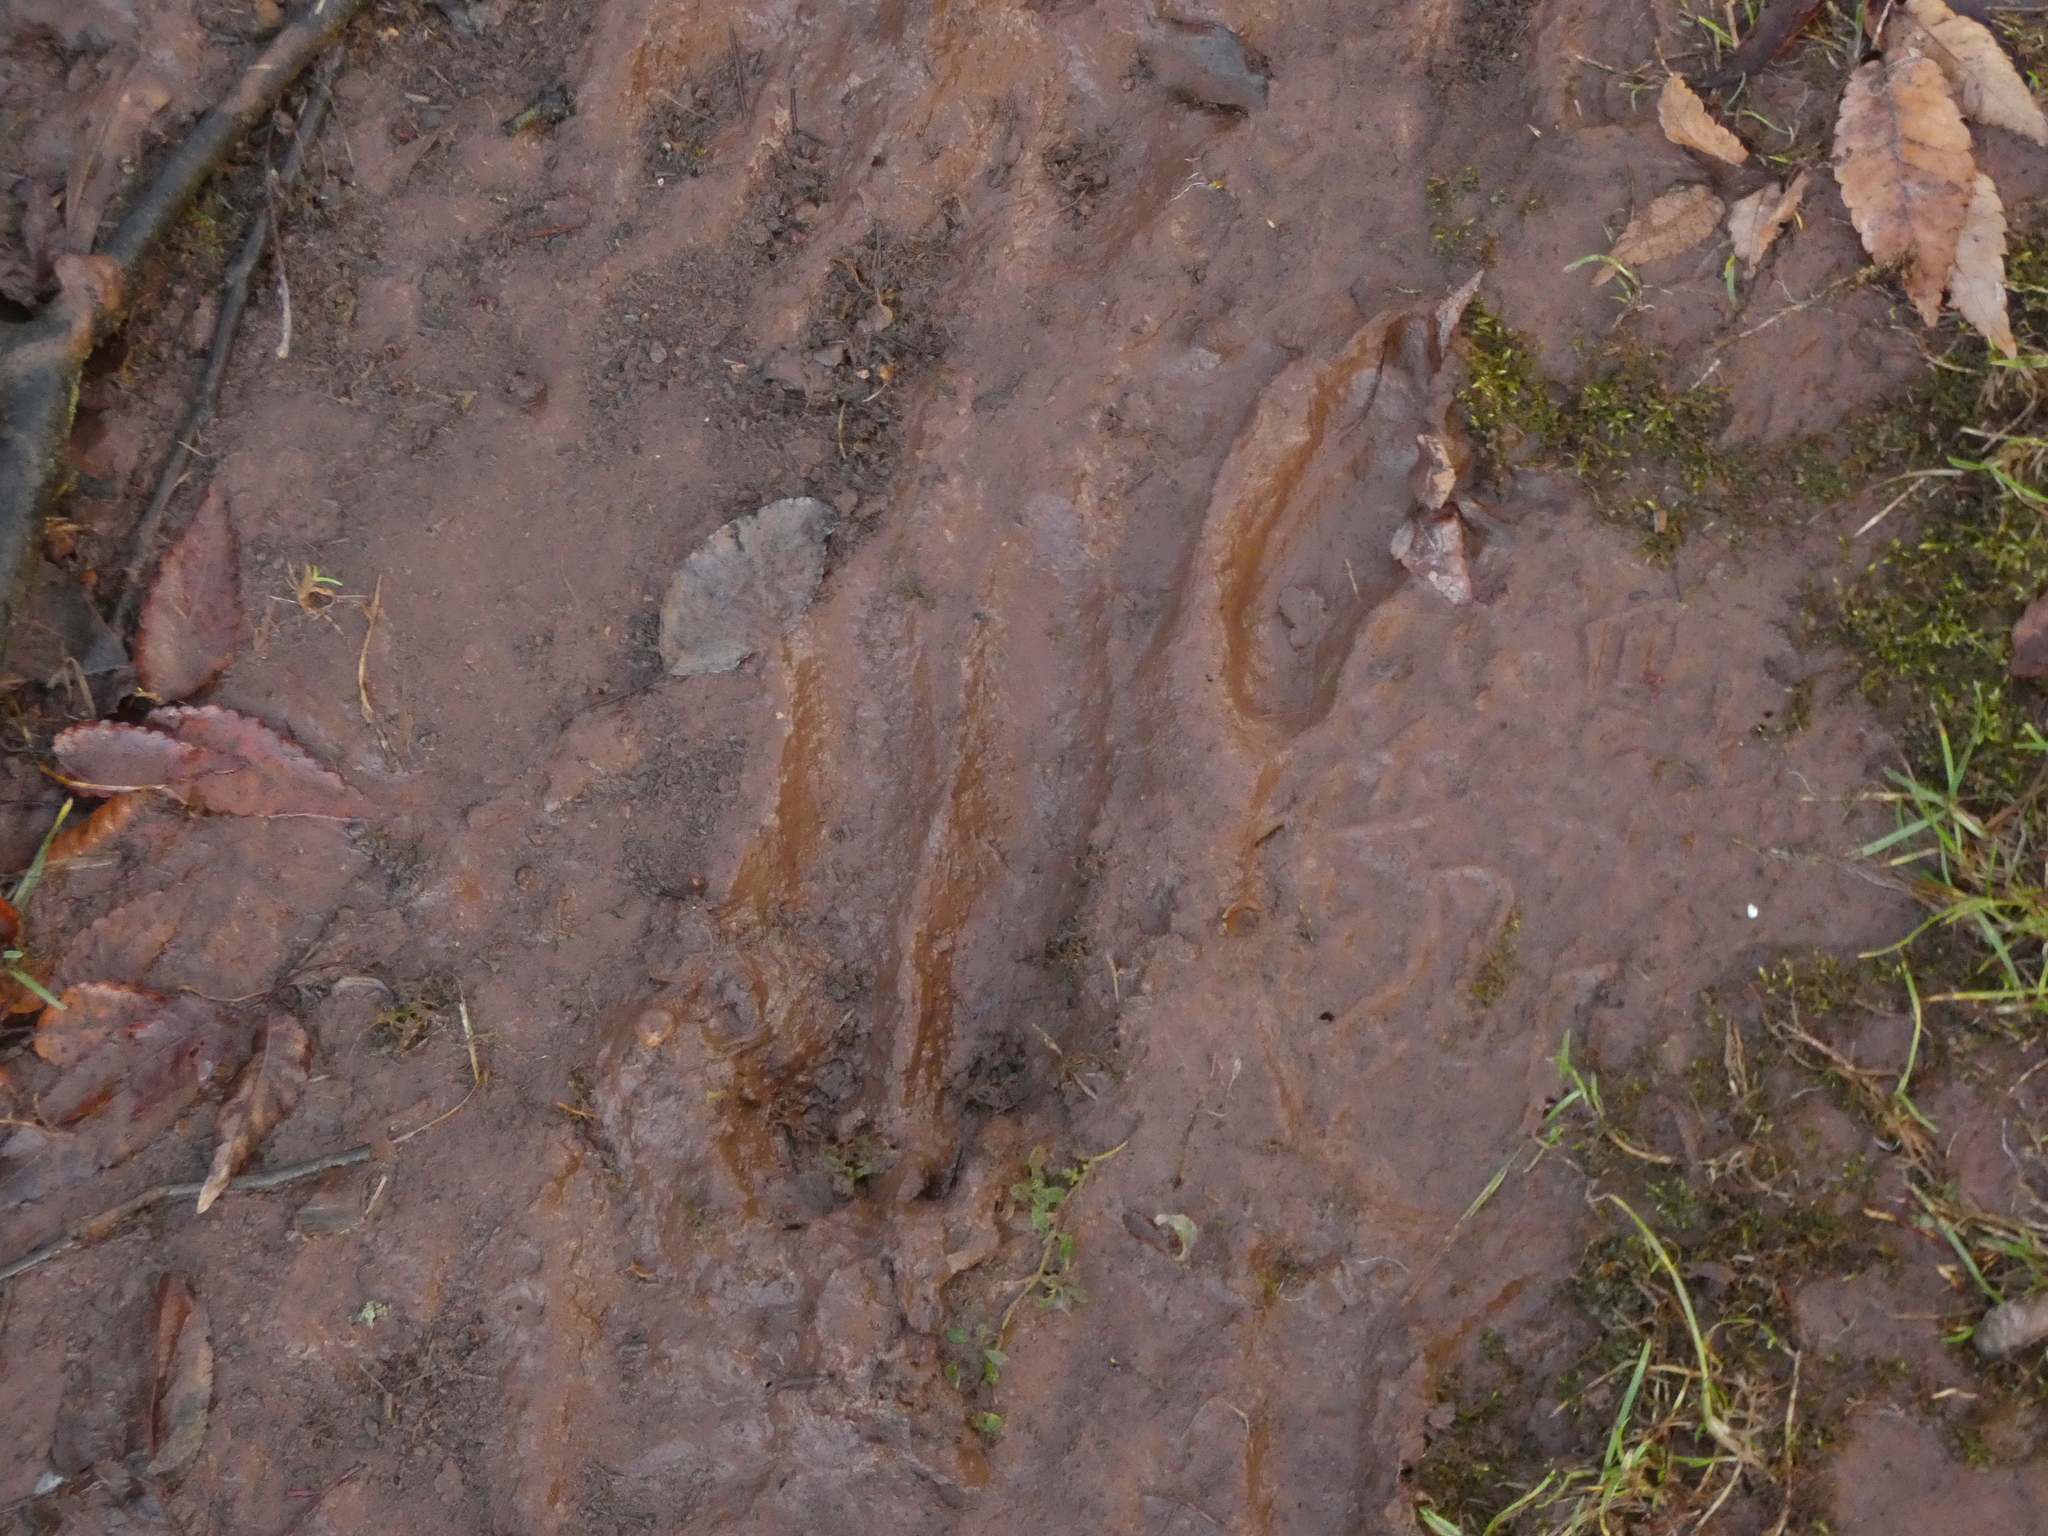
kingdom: Animalia
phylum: Chordata
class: Mammalia
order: Artiodactyla
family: Cervidae
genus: Odocoileus
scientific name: Odocoileus virginianus
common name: White-tailed deer
